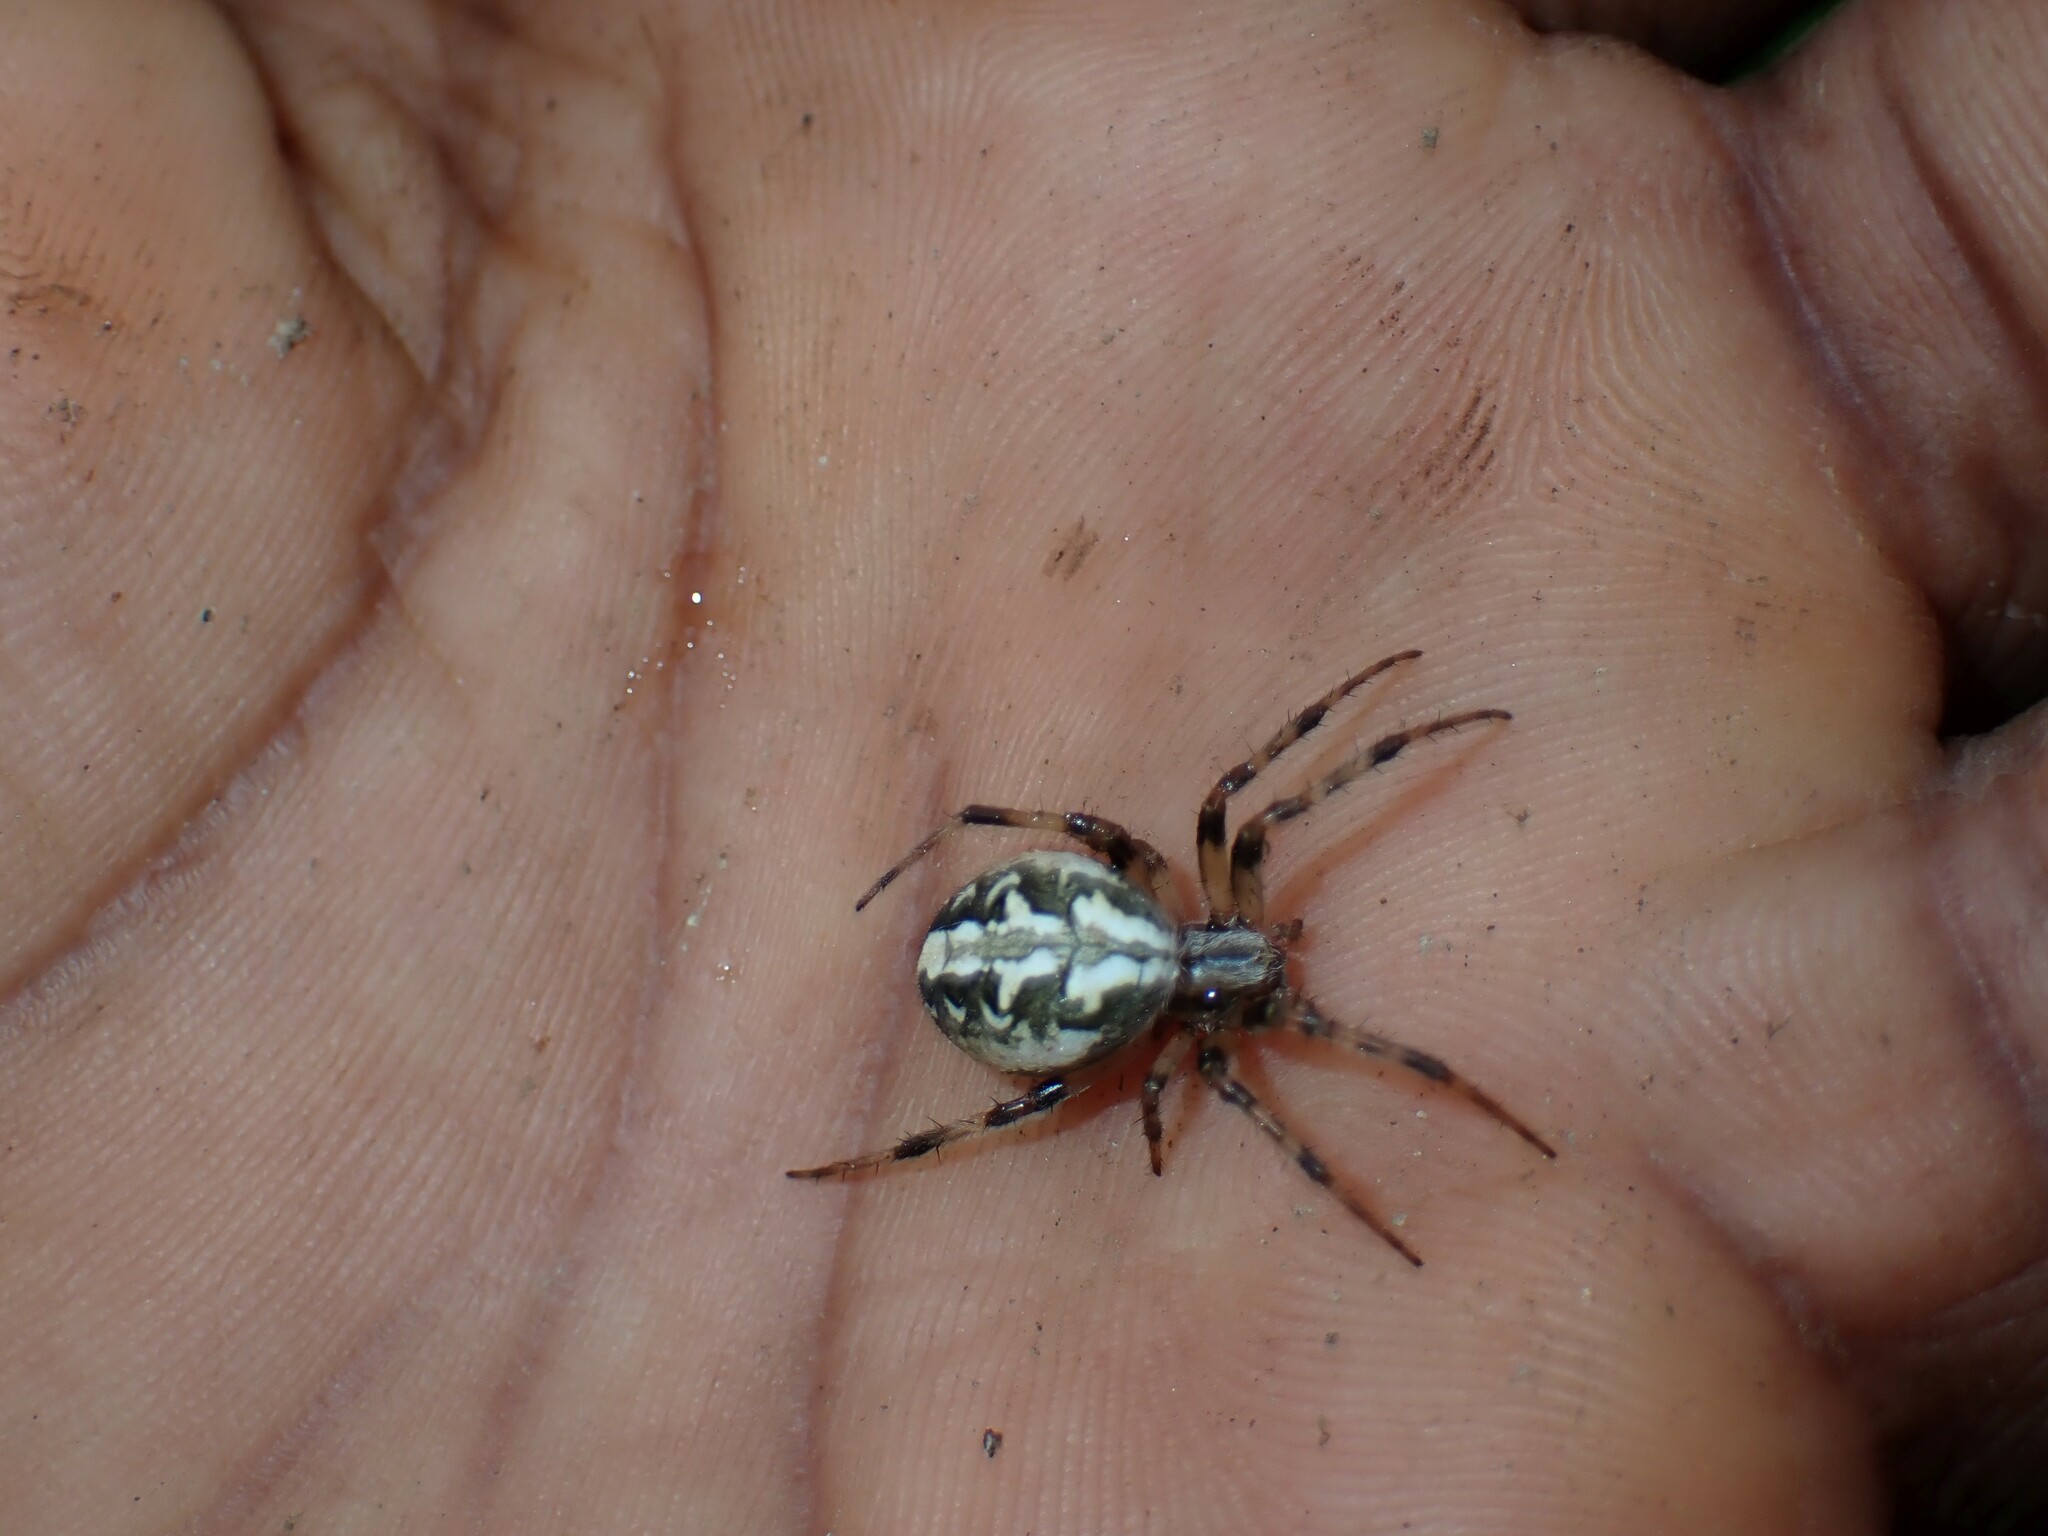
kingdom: Animalia
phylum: Arthropoda
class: Arachnida
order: Araneae
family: Araneidae
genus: Neoscona
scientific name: Neoscona theisi
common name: Spider
